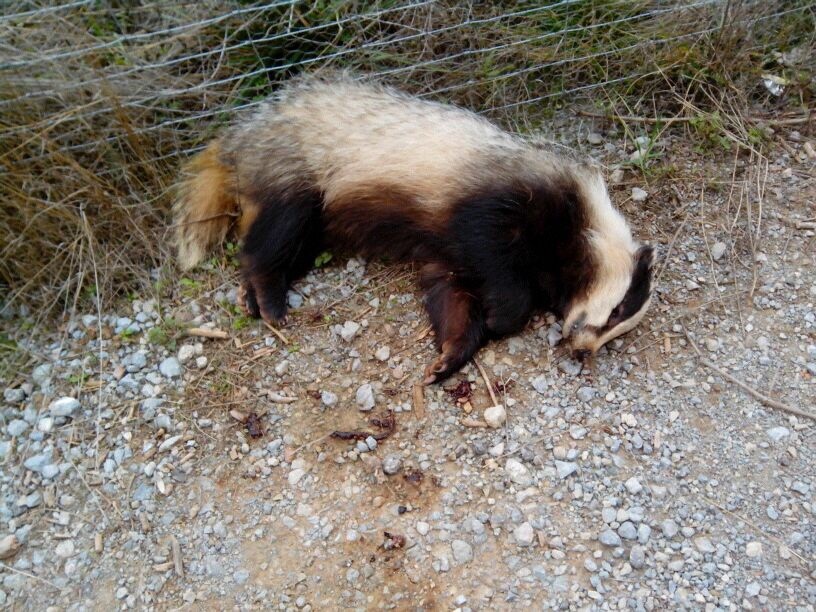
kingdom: Animalia
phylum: Chordata
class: Mammalia
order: Carnivora
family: Mustelidae
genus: Meles
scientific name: Meles meles
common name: Eurasian badger
